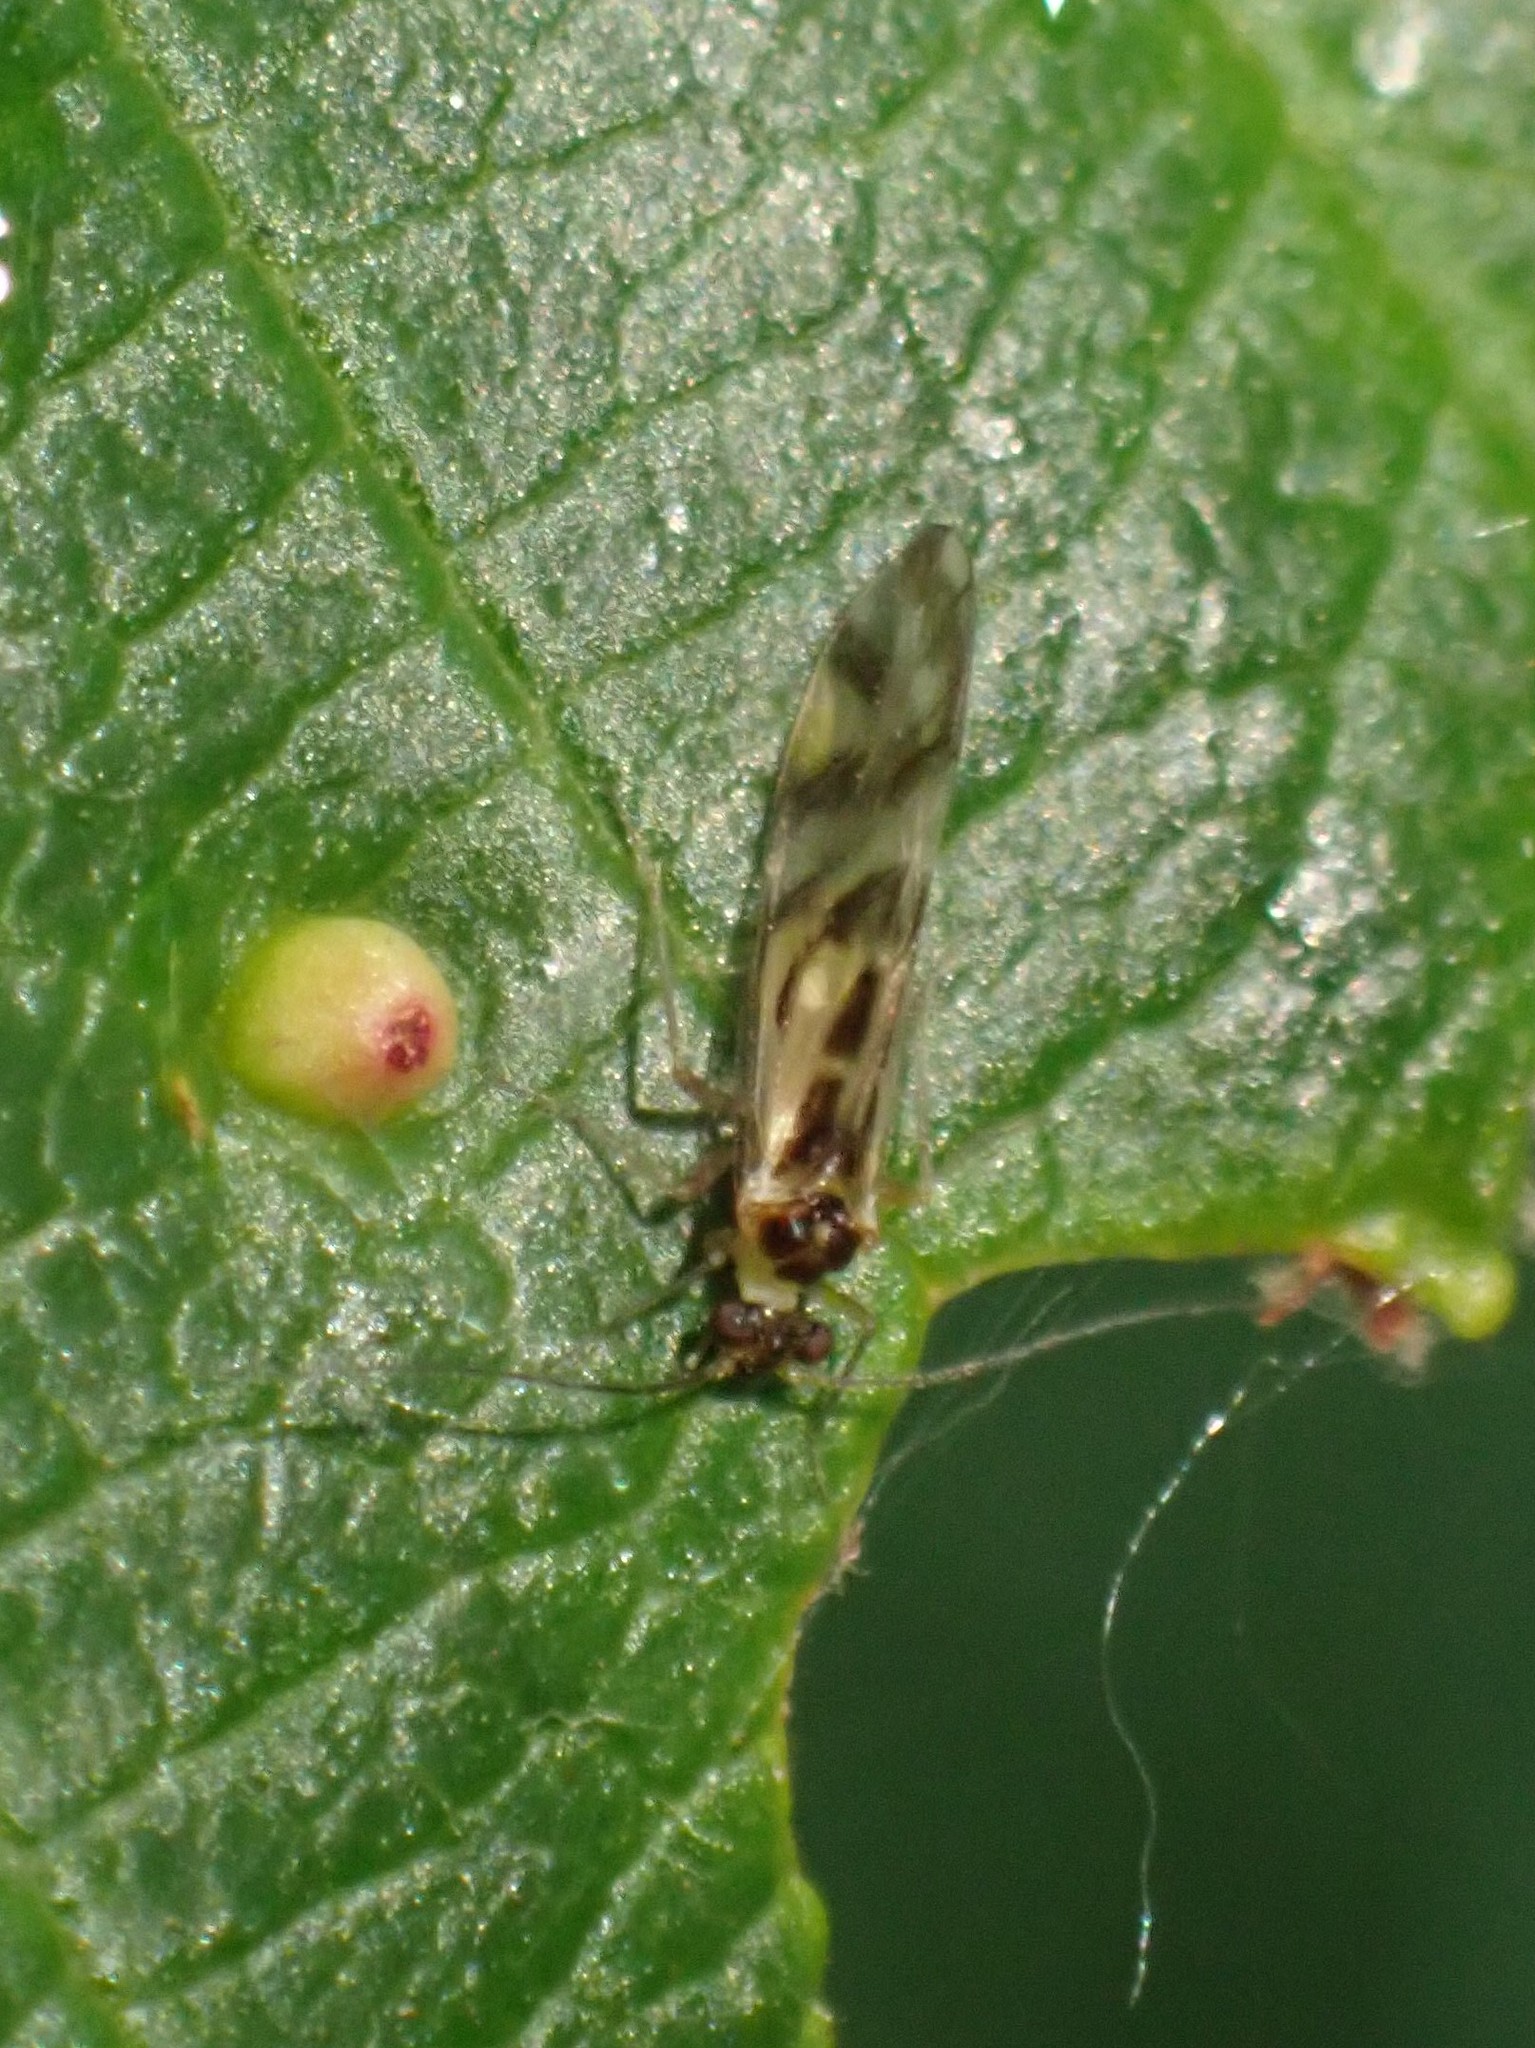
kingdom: Animalia
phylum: Arthropoda
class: Insecta
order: Psocodea
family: Stenopsocidae
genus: Graphopsocus
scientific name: Graphopsocus cruciatus
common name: Lizard bark louse
